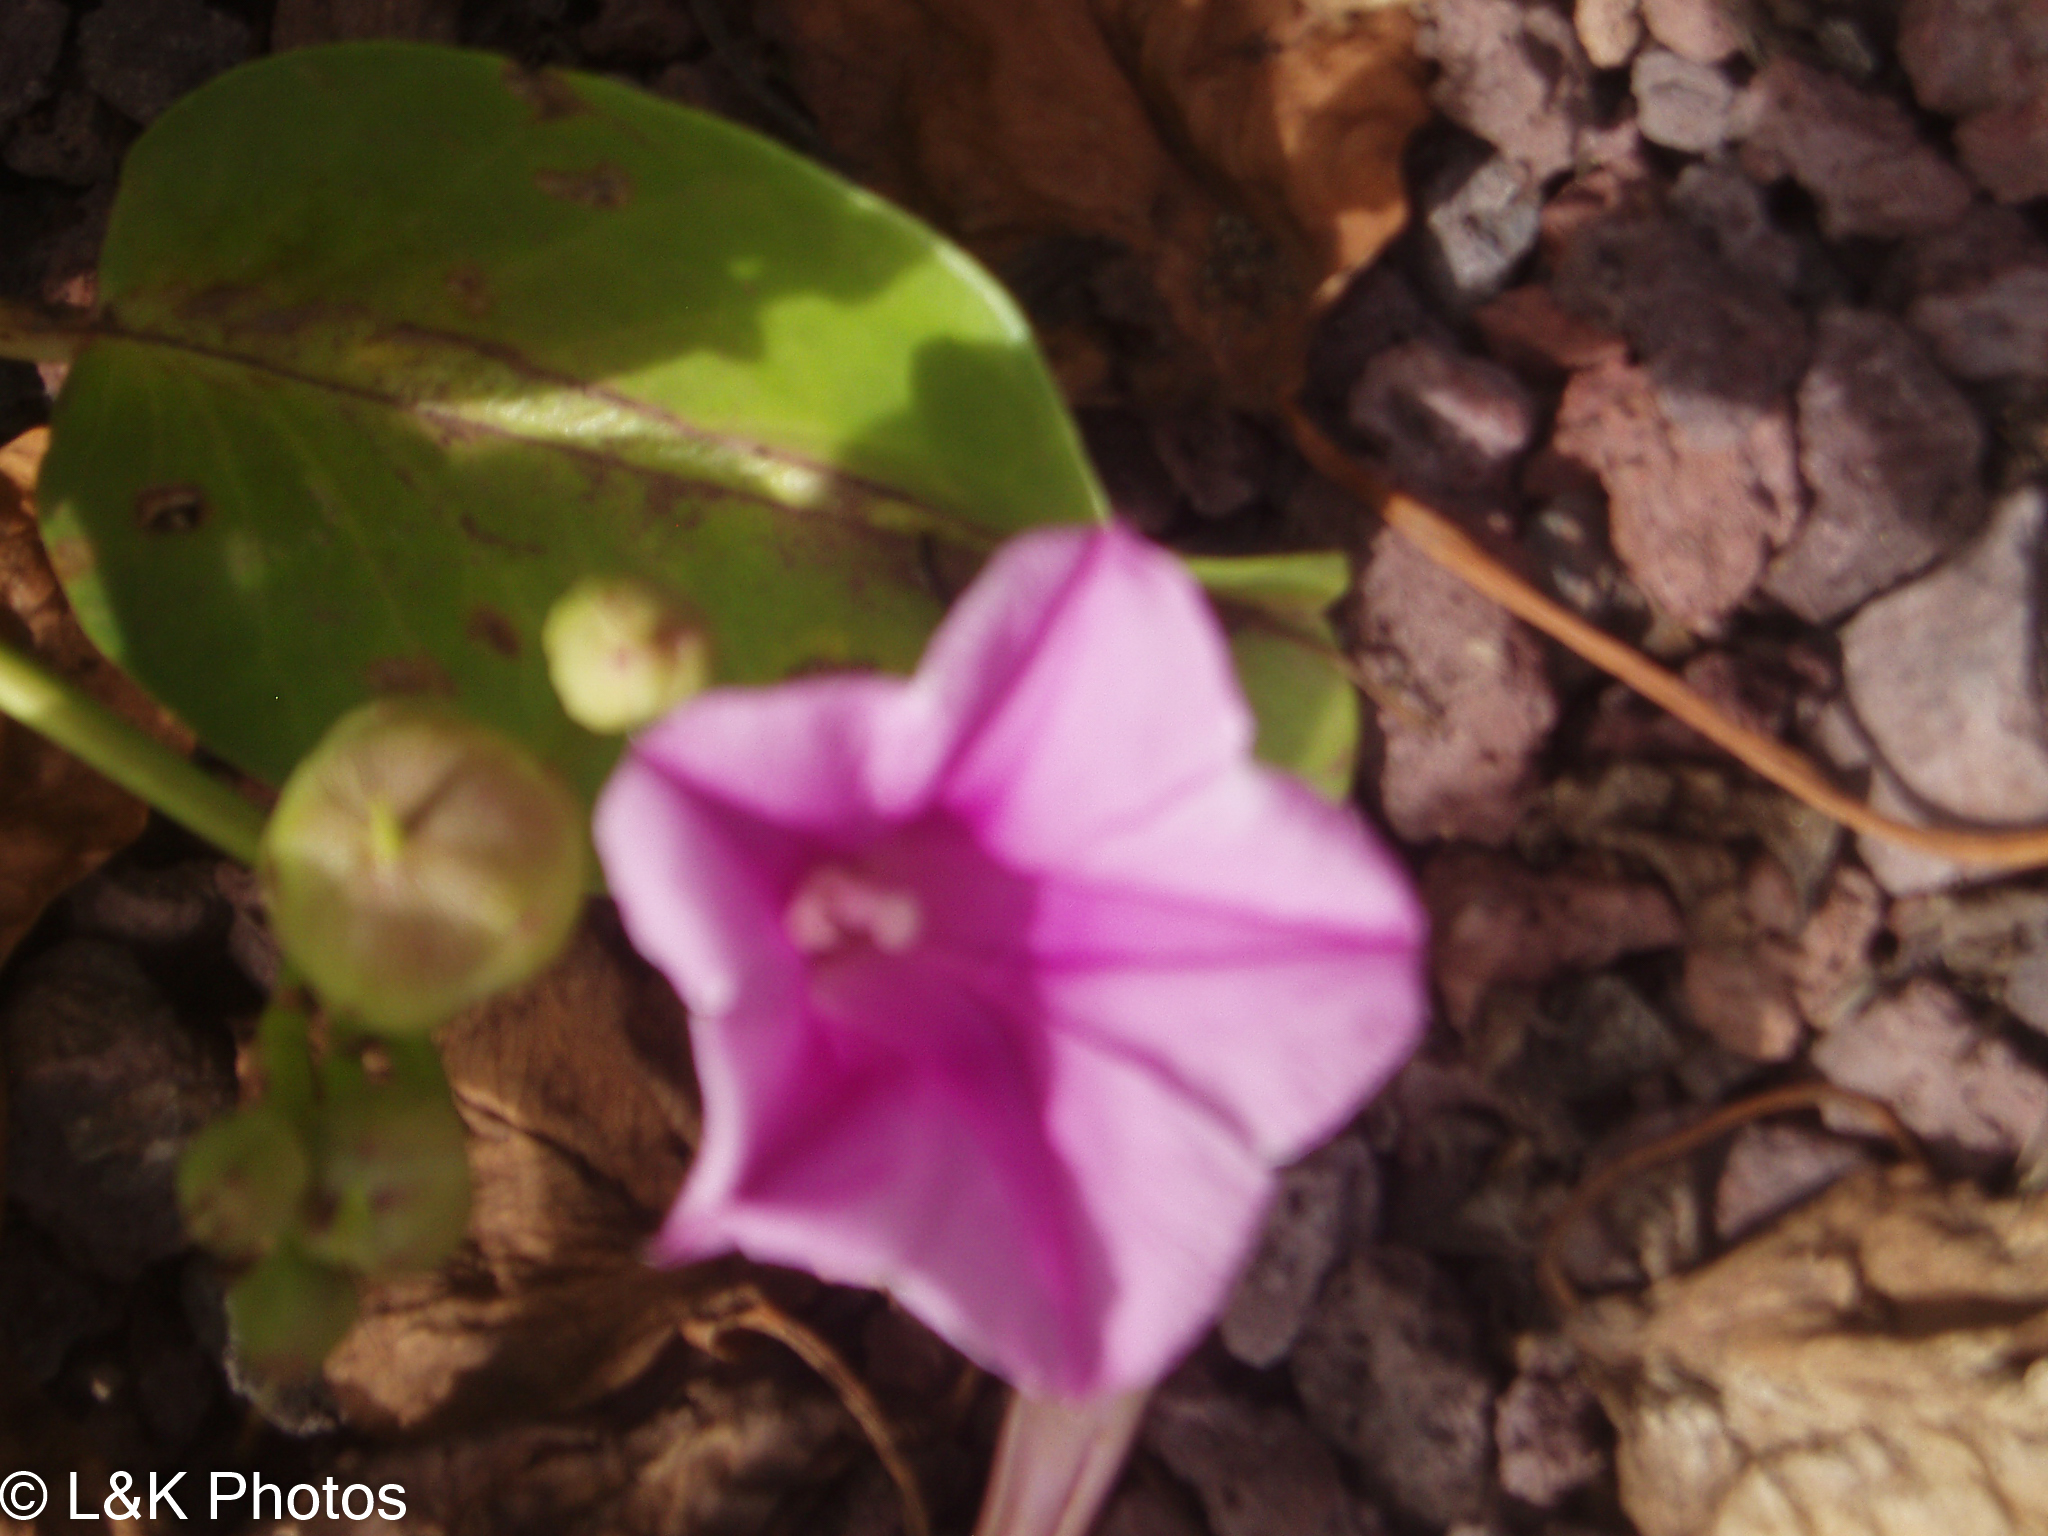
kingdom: Plantae
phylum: Tracheophyta
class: Magnoliopsida
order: Solanales
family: Convolvulaceae
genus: Ipomoea
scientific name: Ipomoea pes-caprae
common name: Beach morning glory
